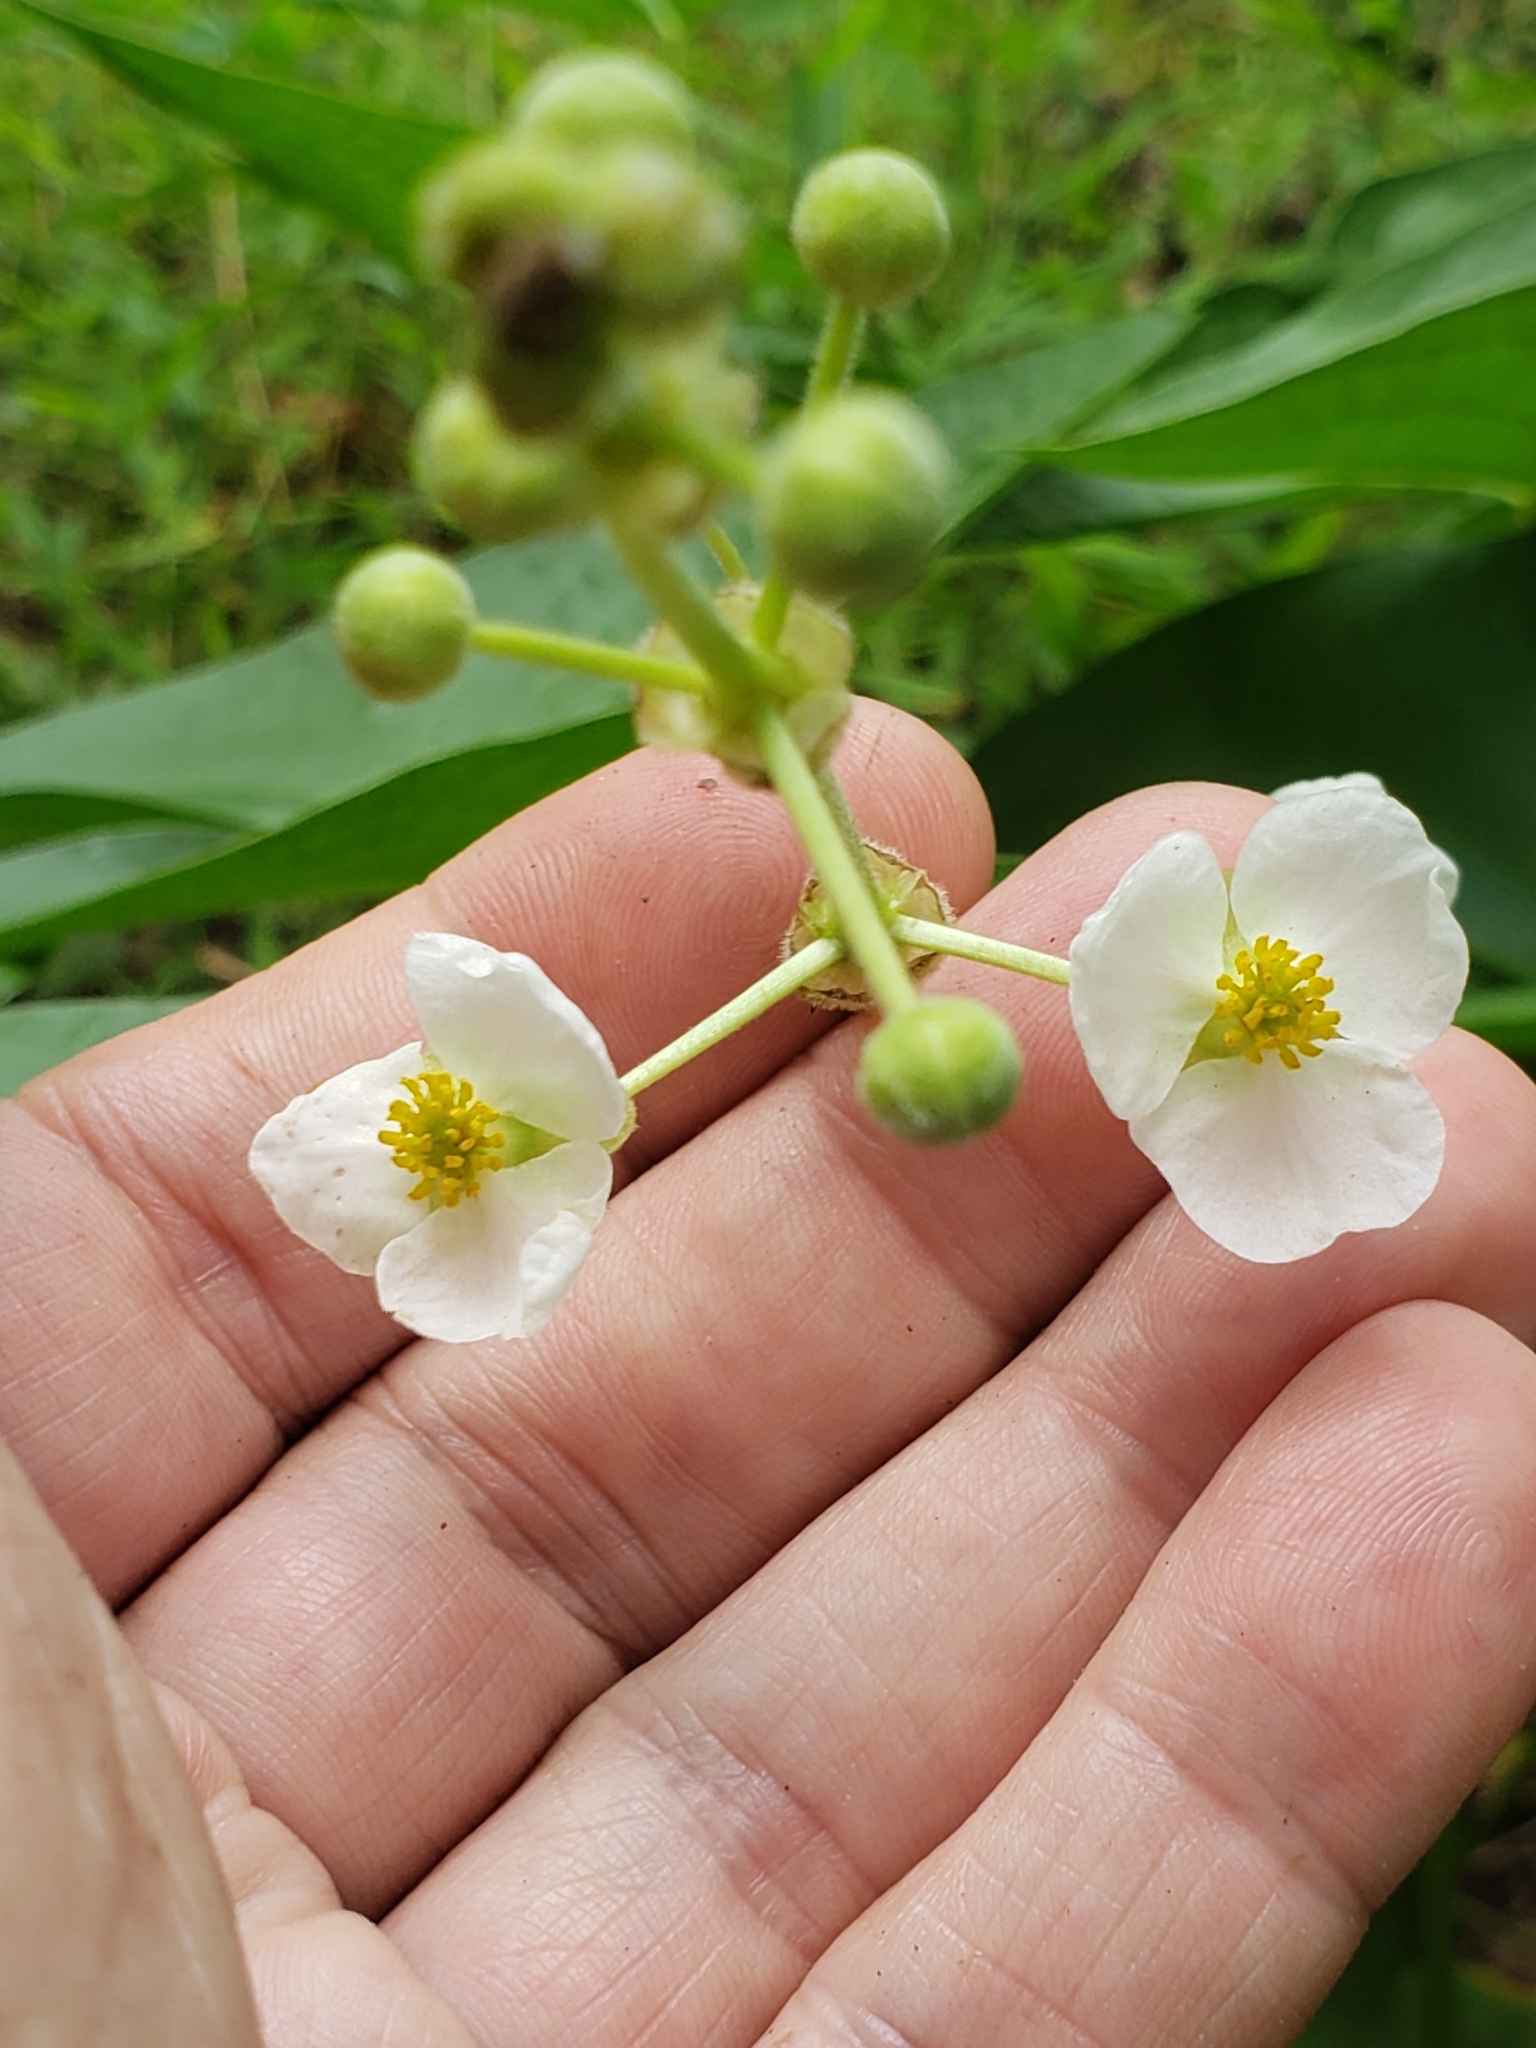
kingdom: Plantae
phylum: Tracheophyta
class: Liliopsida
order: Alismatales
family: Alismataceae
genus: Sagittaria
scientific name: Sagittaria latifolia
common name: Duck-potato
